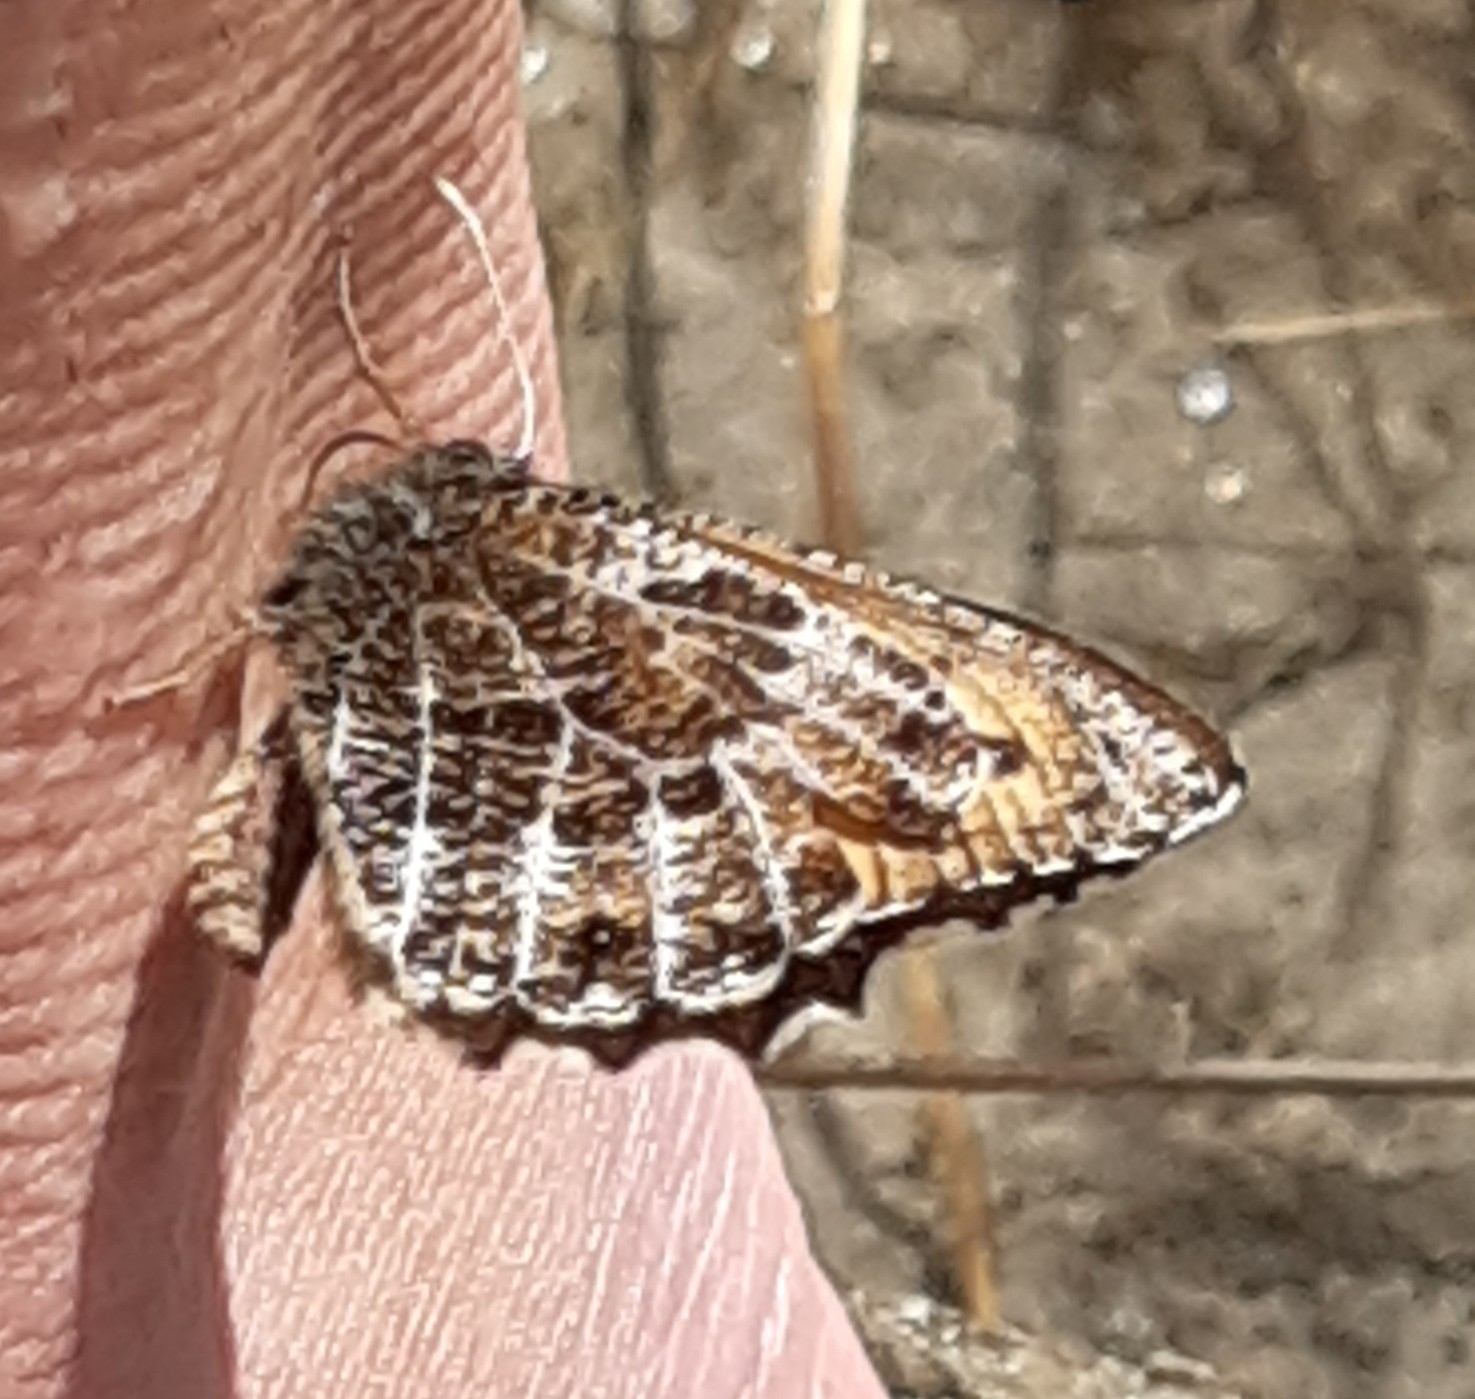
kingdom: Animalia
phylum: Arthropoda
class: Insecta
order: Lepidoptera
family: Nymphalidae
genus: Oeneis
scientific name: Oeneis aello
